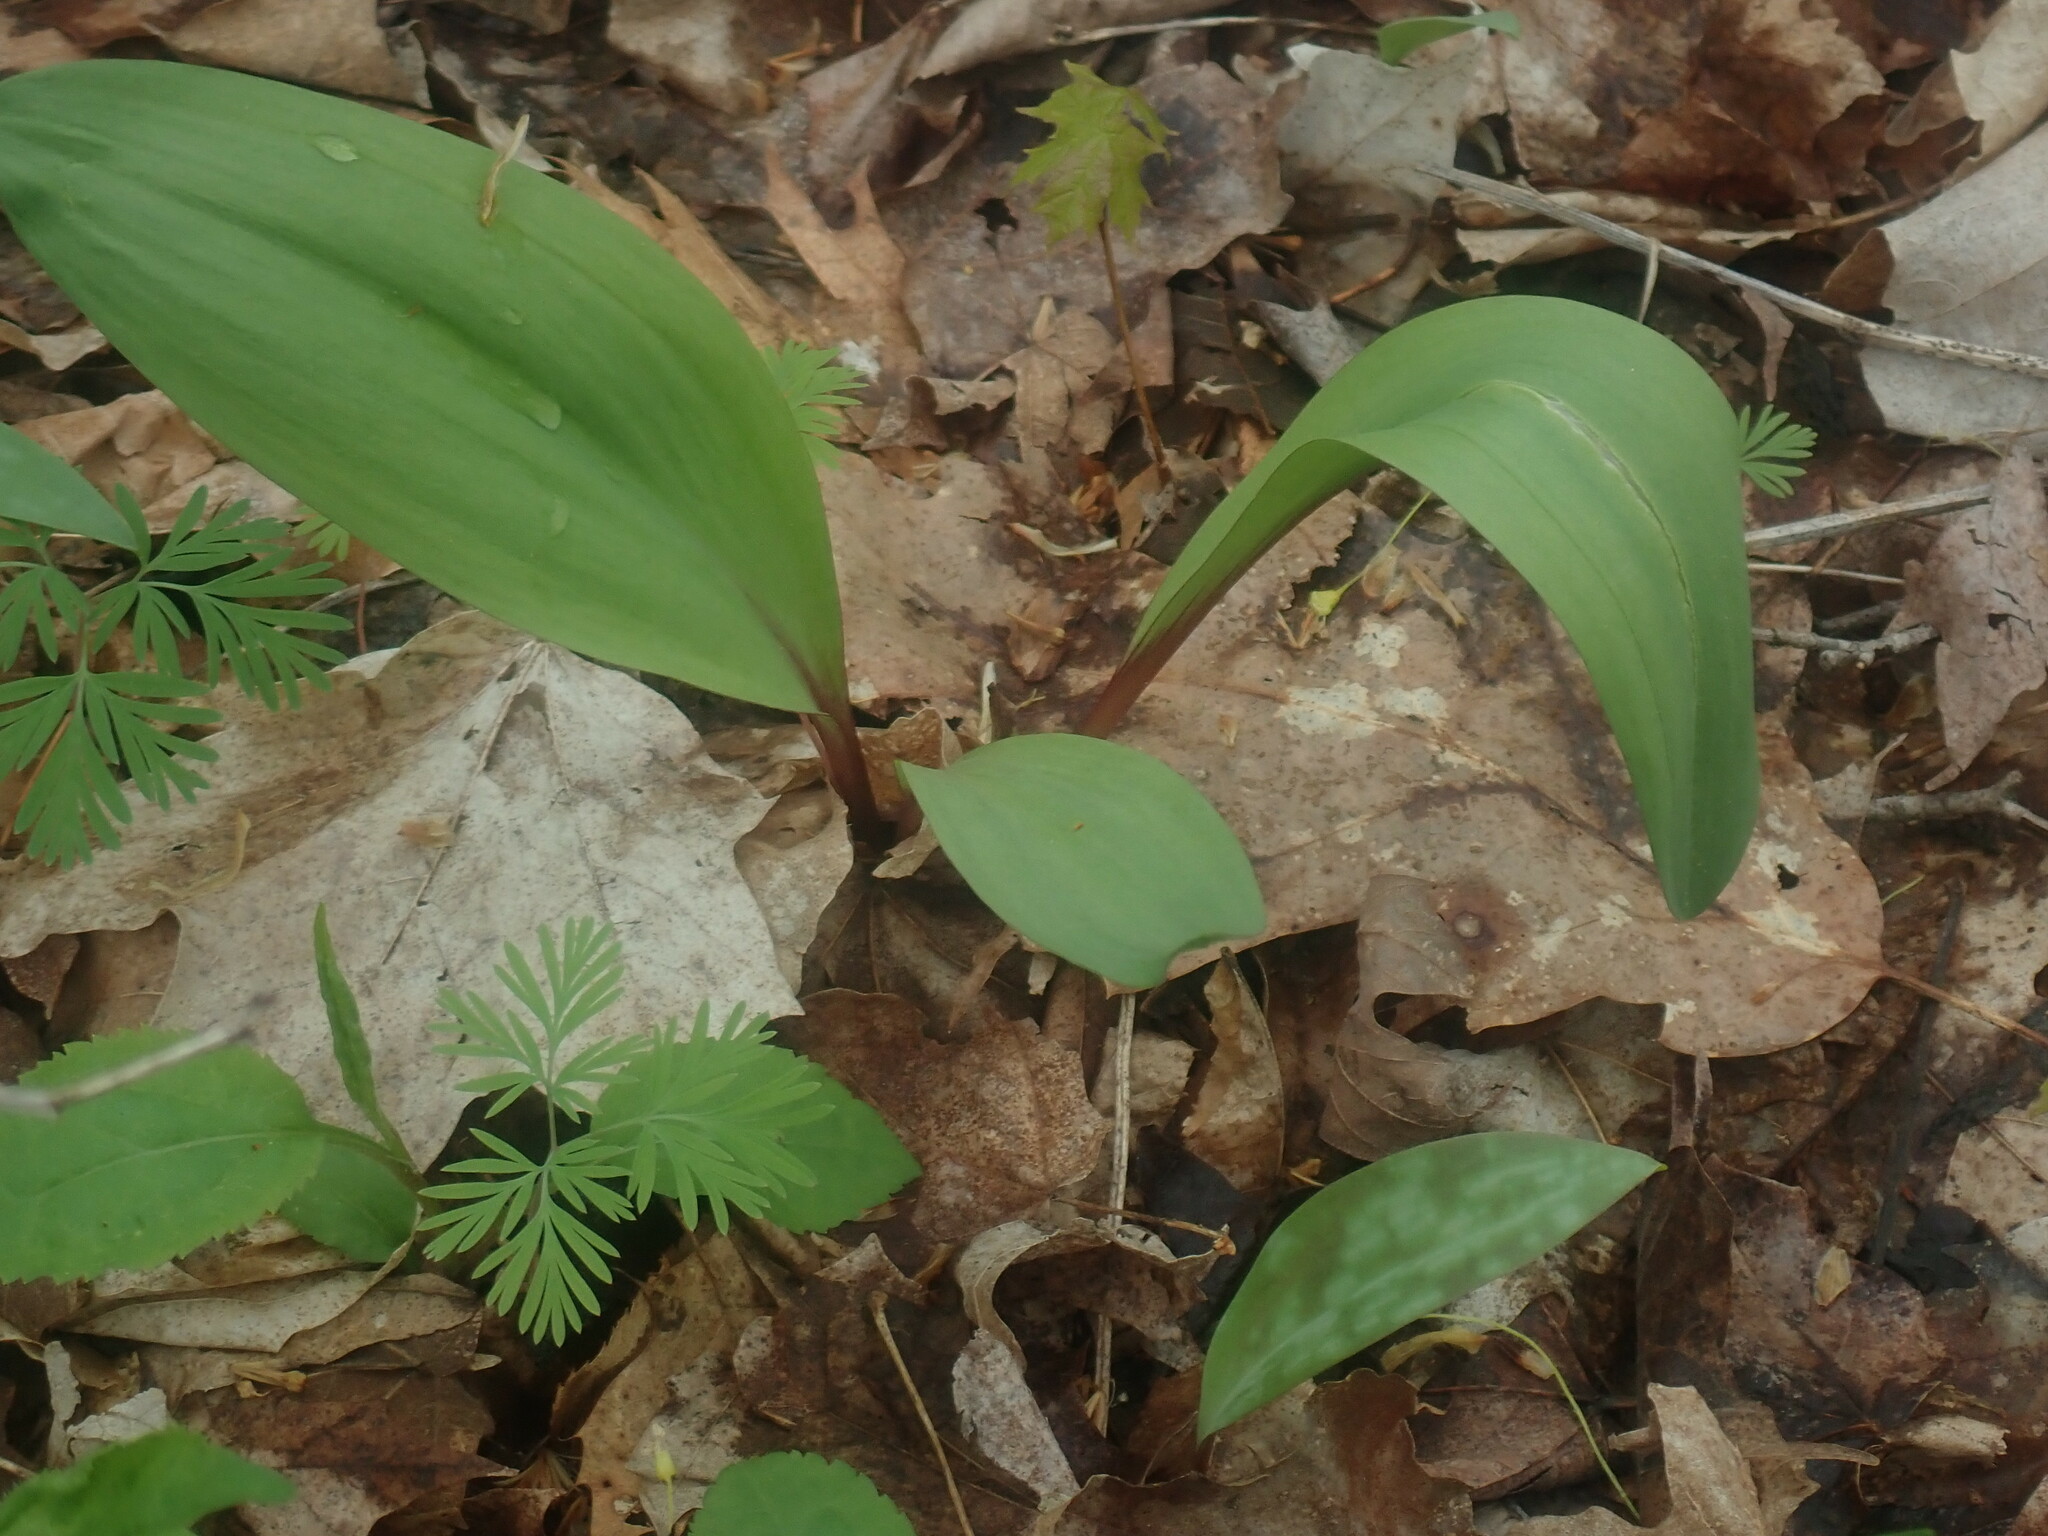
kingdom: Plantae
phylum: Tracheophyta
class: Liliopsida
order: Asparagales
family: Amaryllidaceae
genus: Allium
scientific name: Allium tricoccum
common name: Ramp
